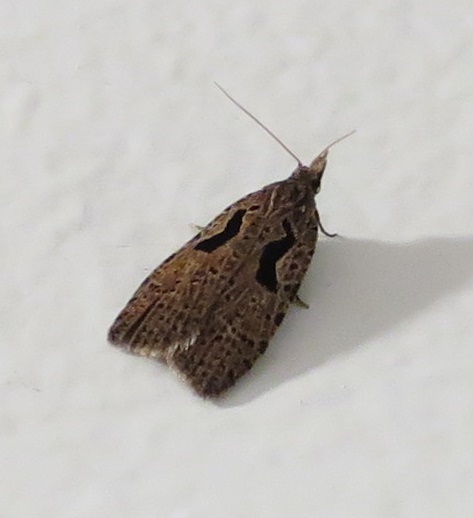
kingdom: Animalia
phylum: Arthropoda
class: Insecta
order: Lepidoptera
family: Tortricidae
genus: Cnephasia
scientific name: Cnephasia jactatana
